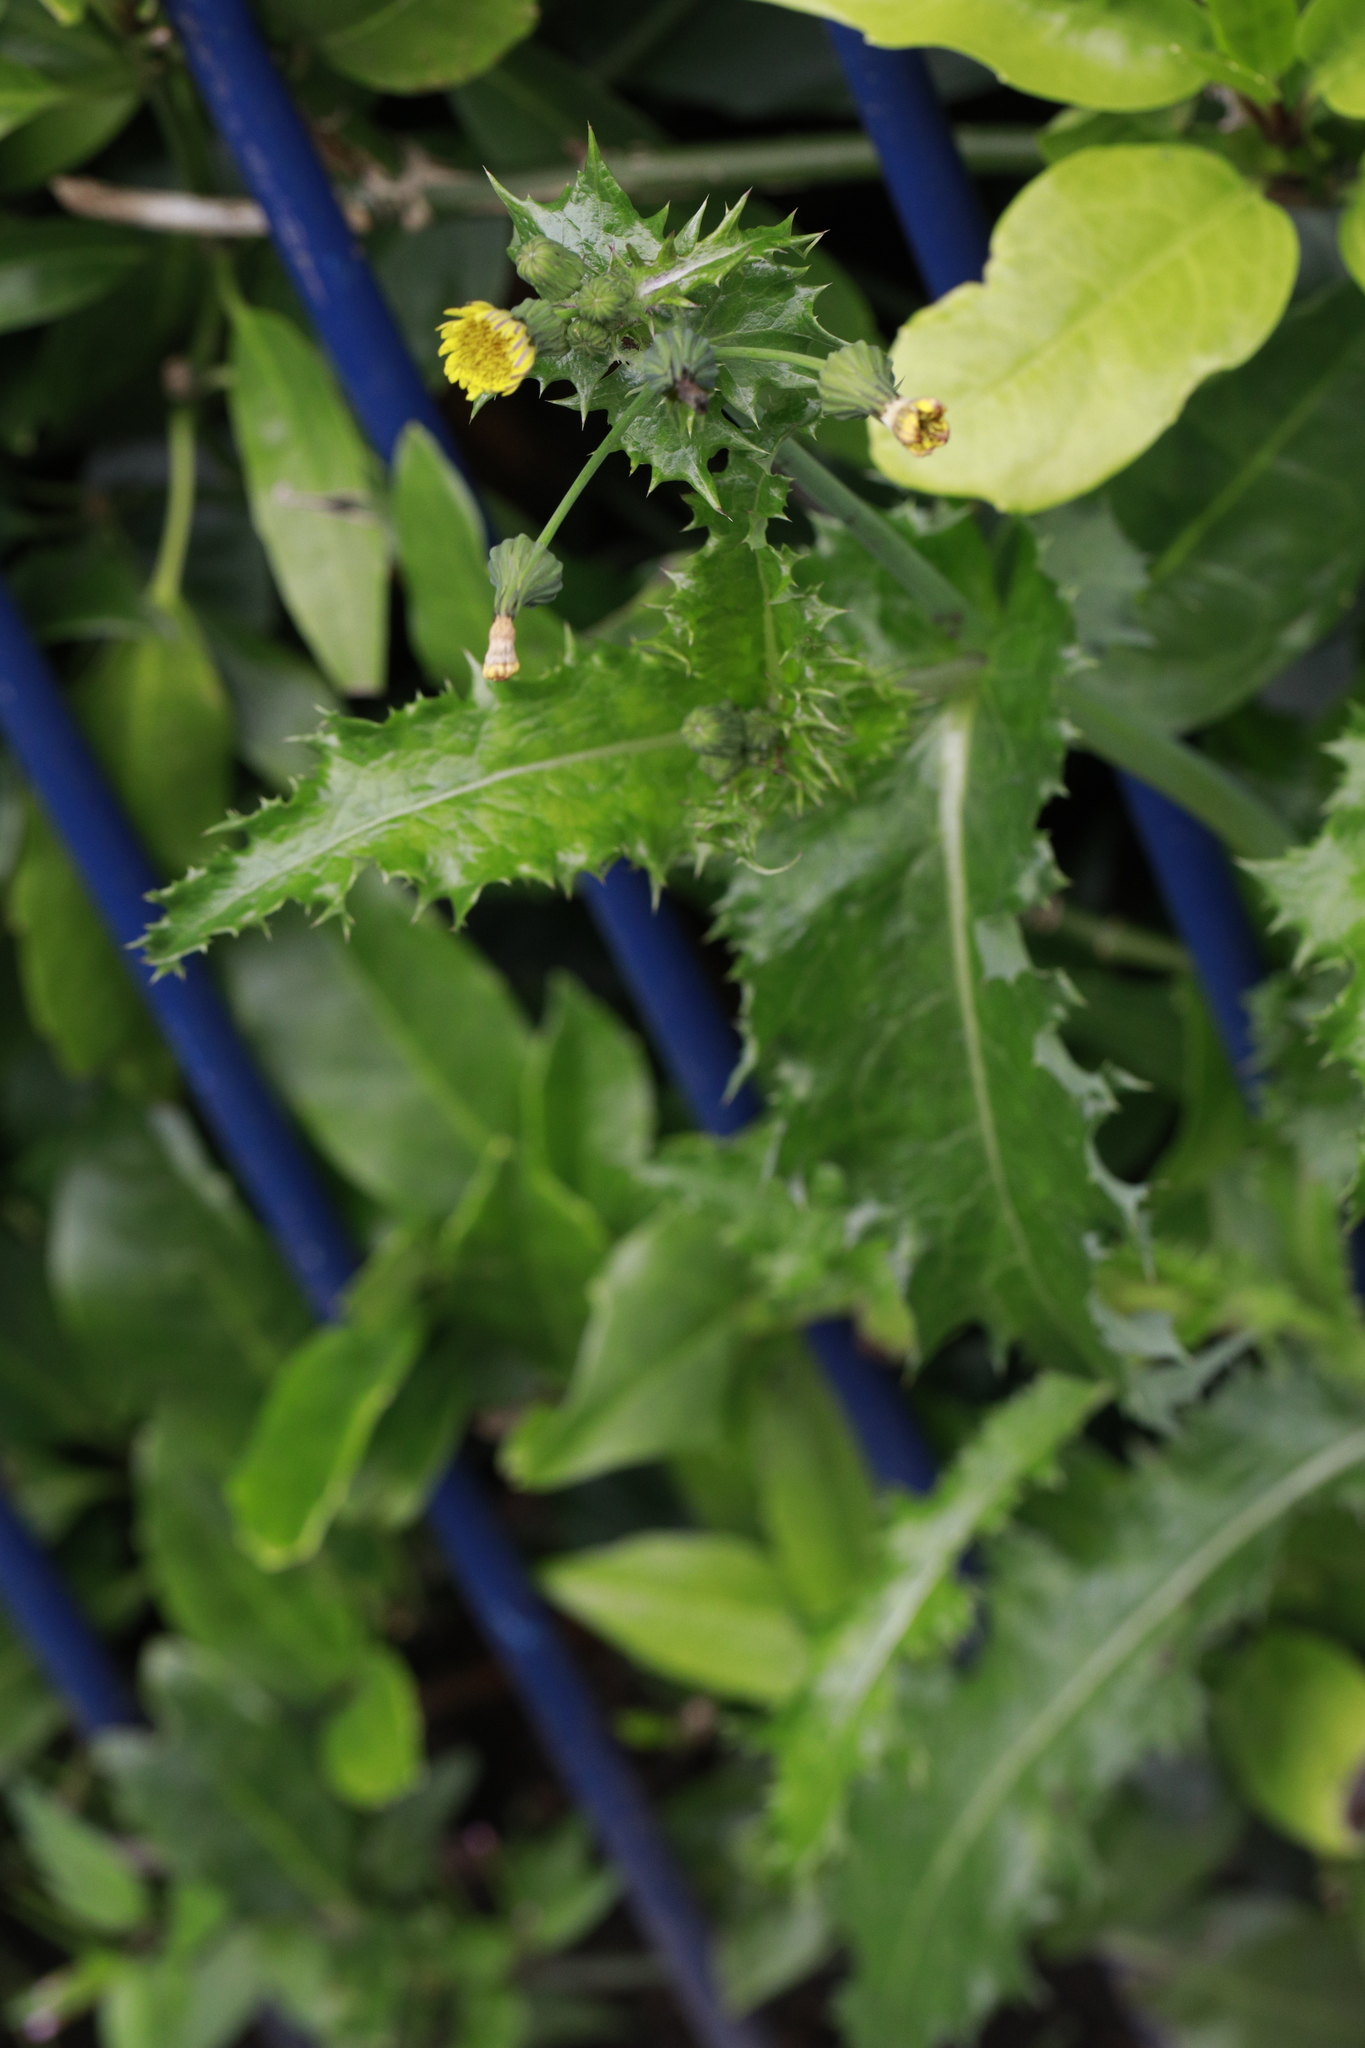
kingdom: Plantae
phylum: Tracheophyta
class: Magnoliopsida
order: Asterales
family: Asteraceae
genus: Sonchus
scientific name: Sonchus asper
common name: Prickly sow-thistle
